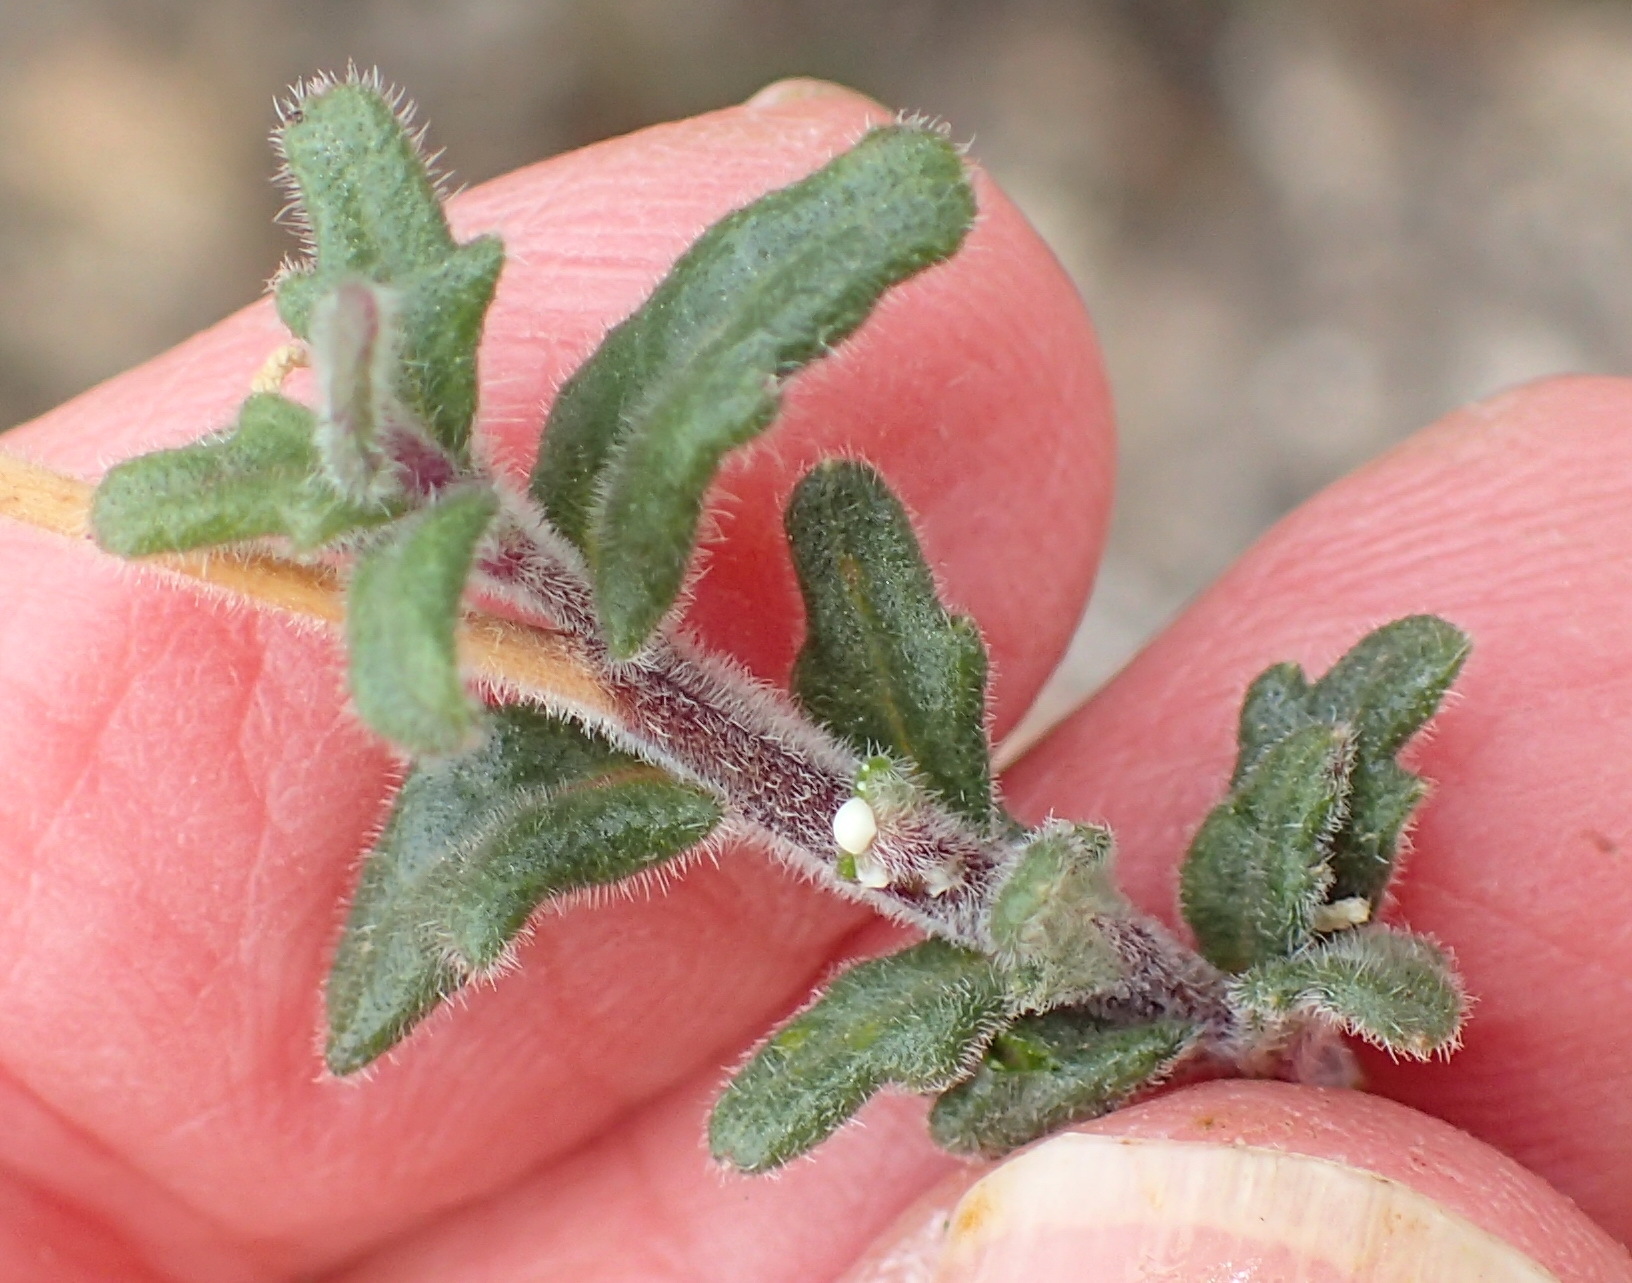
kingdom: Plantae
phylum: Tracheophyta
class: Magnoliopsida
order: Asterales
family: Campanulaceae
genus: Lobelia
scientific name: Lobelia dichroma
